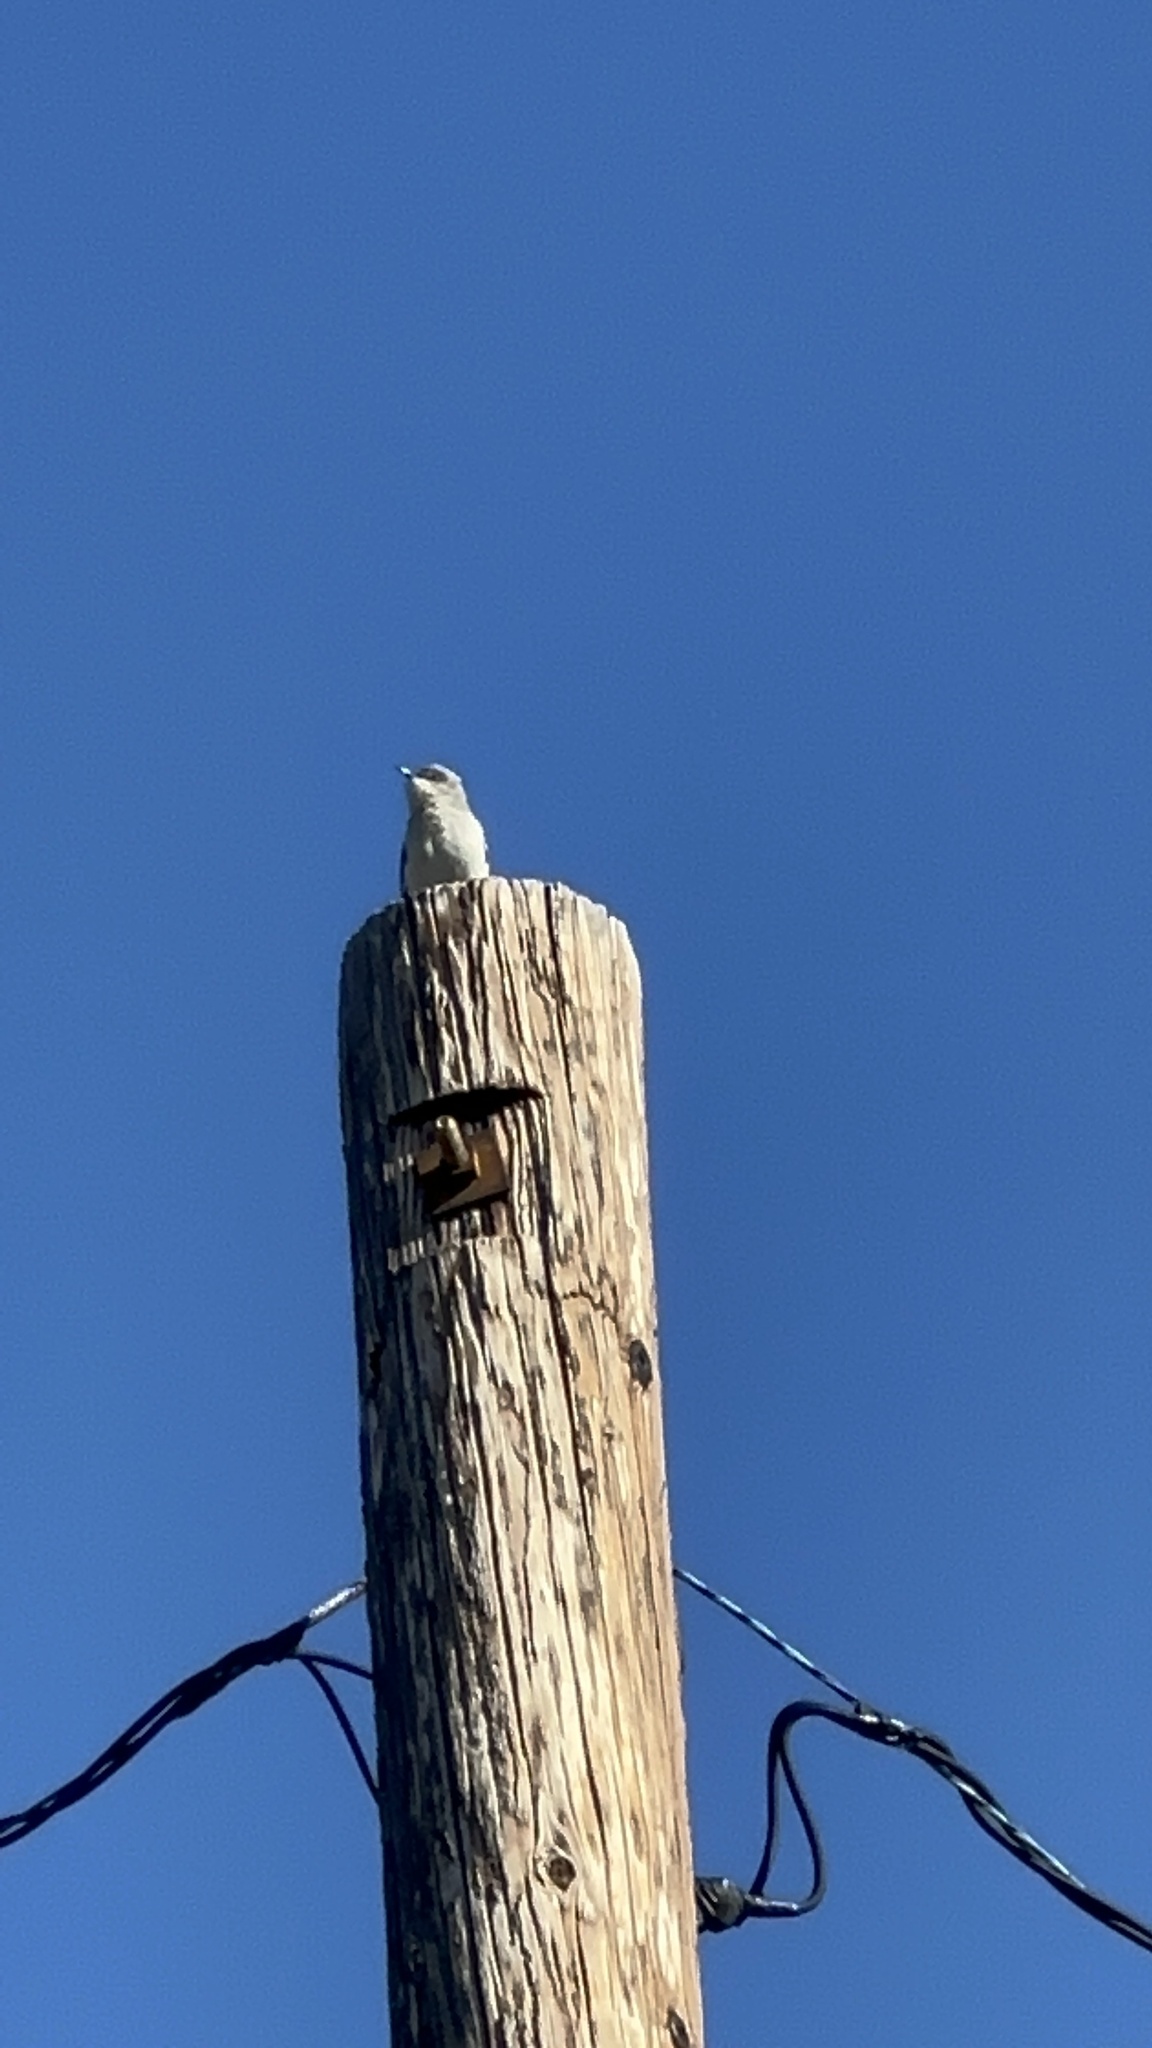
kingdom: Animalia
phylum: Chordata
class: Aves
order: Passeriformes
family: Mimidae
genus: Mimus
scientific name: Mimus polyglottos
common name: Northern mockingbird
